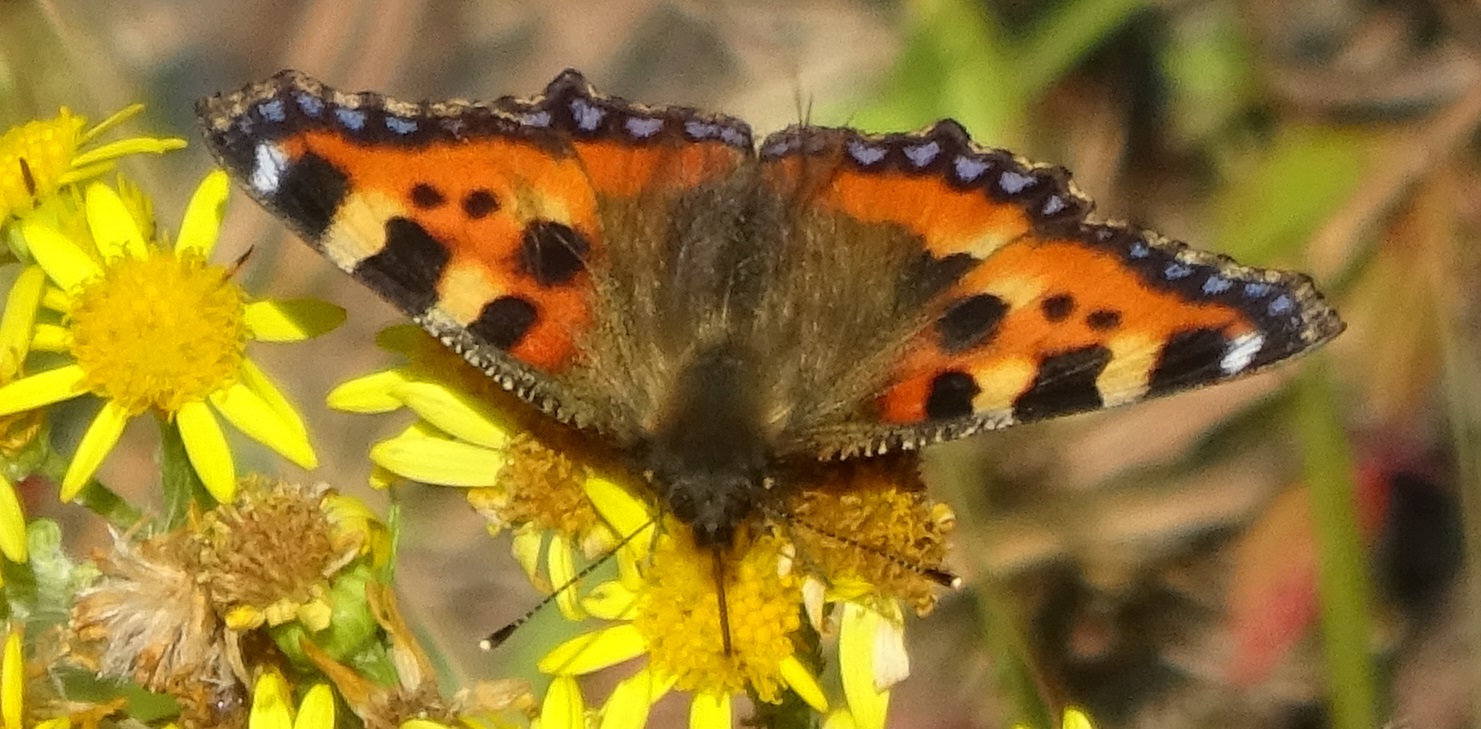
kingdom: Animalia
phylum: Arthropoda
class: Insecta
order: Lepidoptera
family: Nymphalidae
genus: Aglais
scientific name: Aglais urticae
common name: Small tortoiseshell
